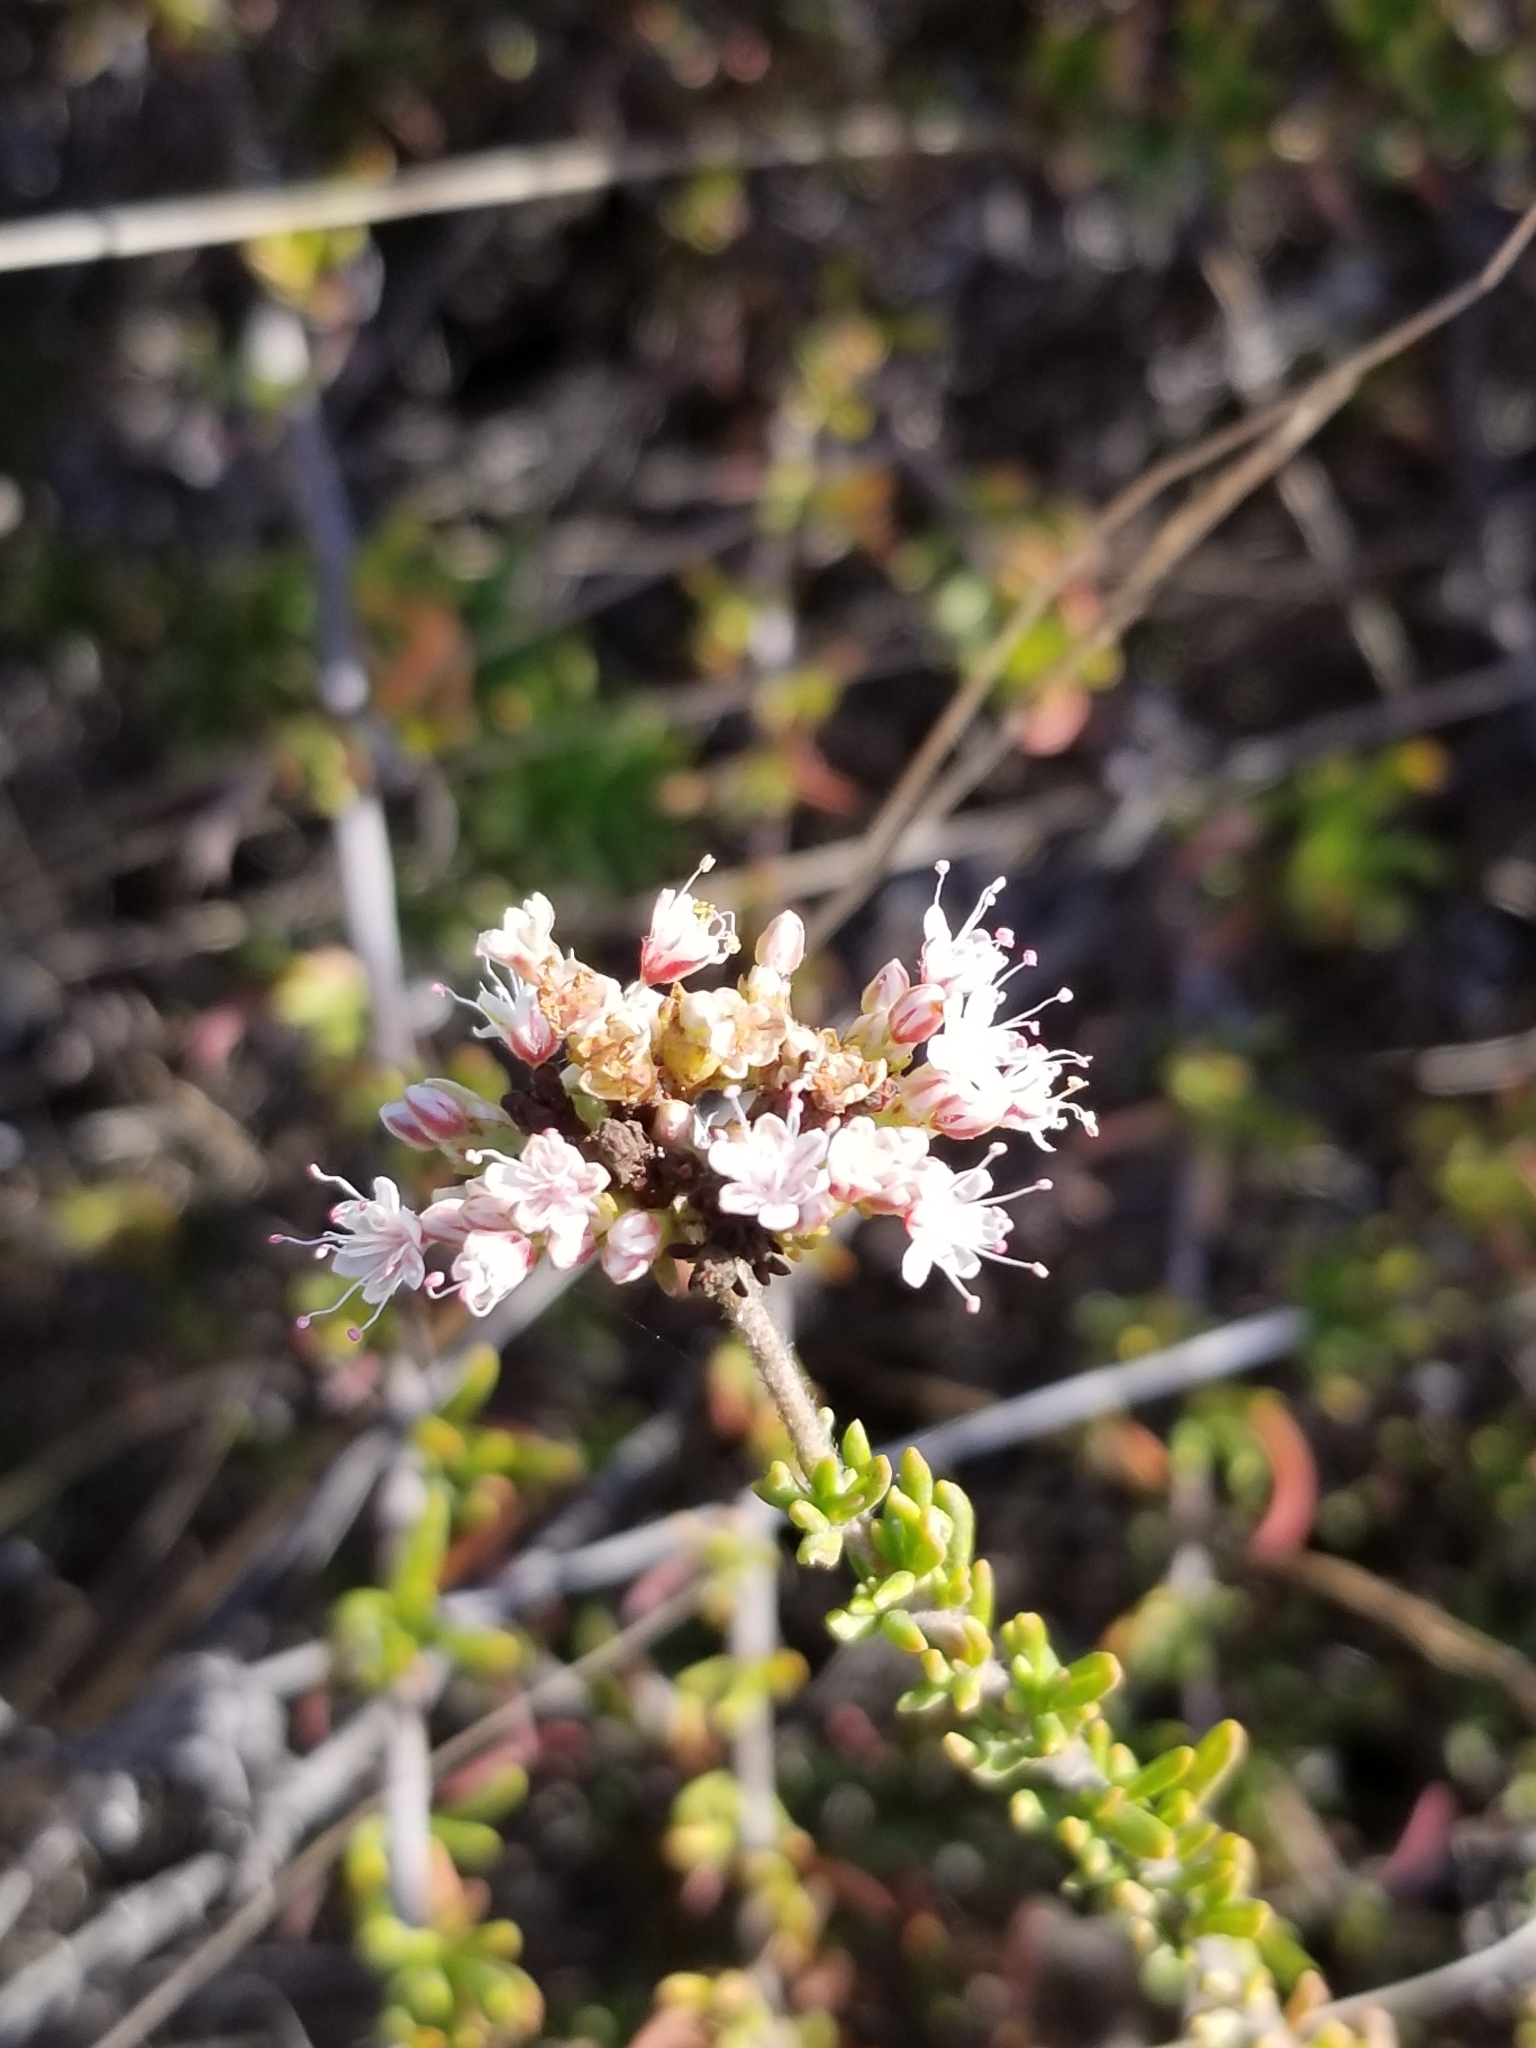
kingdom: Plantae
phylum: Tracheophyta
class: Magnoliopsida
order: Caryophyllales
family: Polygonaceae
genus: Eriogonum
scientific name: Eriogonum fasciculatum
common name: California wild buckwheat
